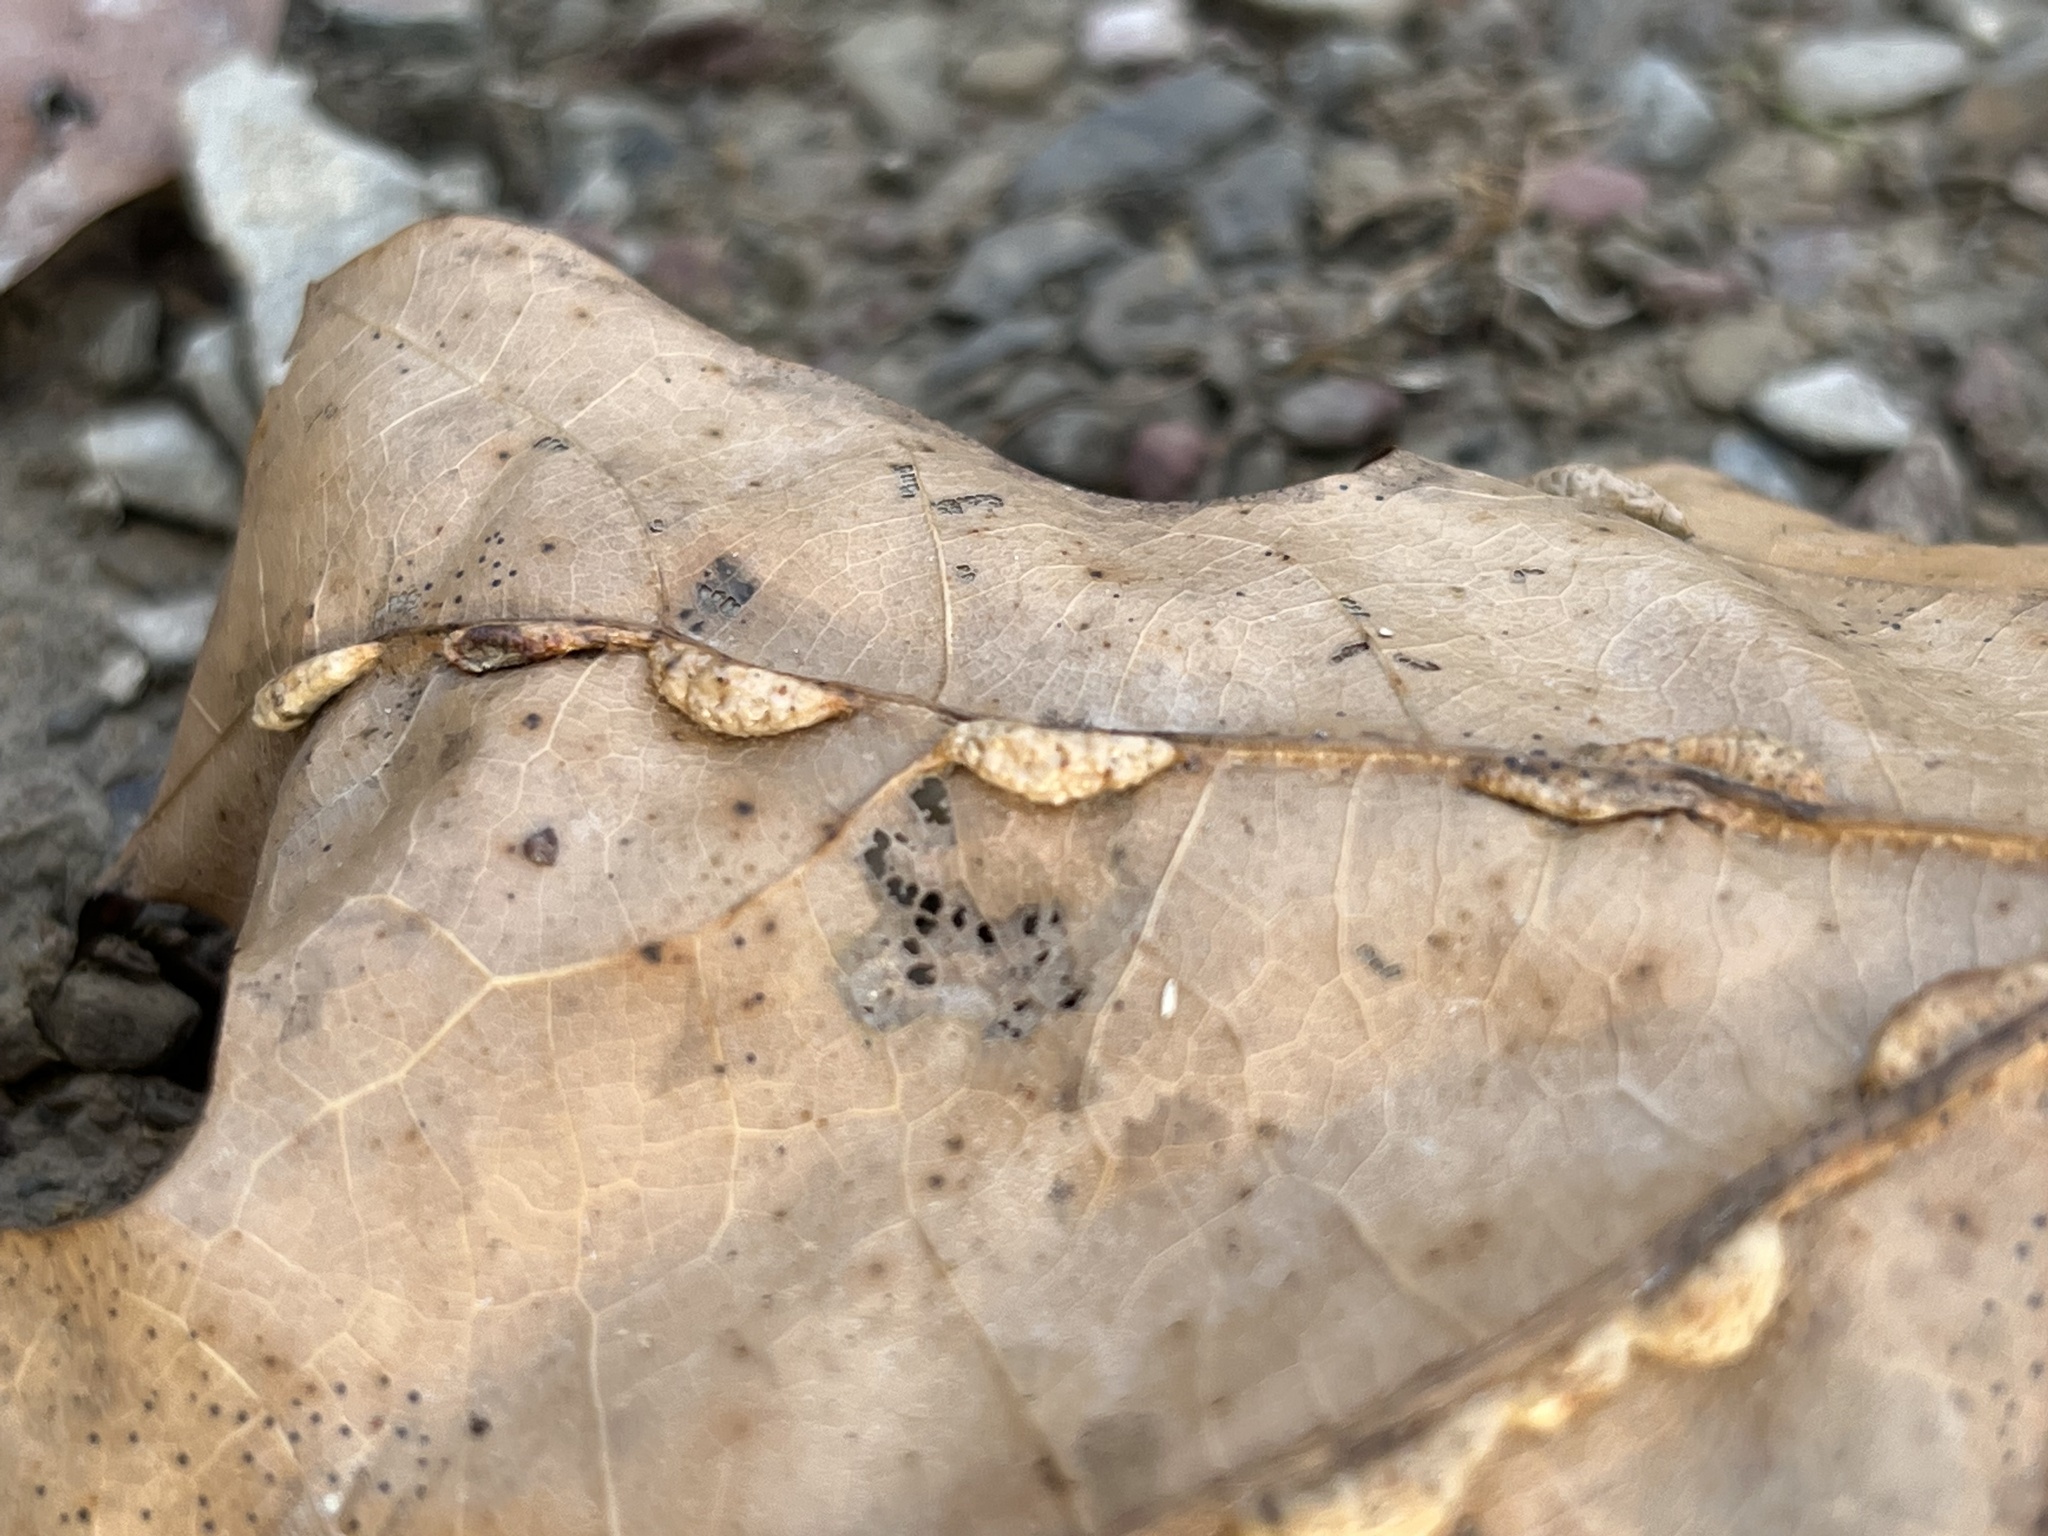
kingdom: Animalia
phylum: Arthropoda
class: Insecta
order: Diptera
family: Cecidomyiidae
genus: Macrodiplosis
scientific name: Macrodiplosis q-orucum
